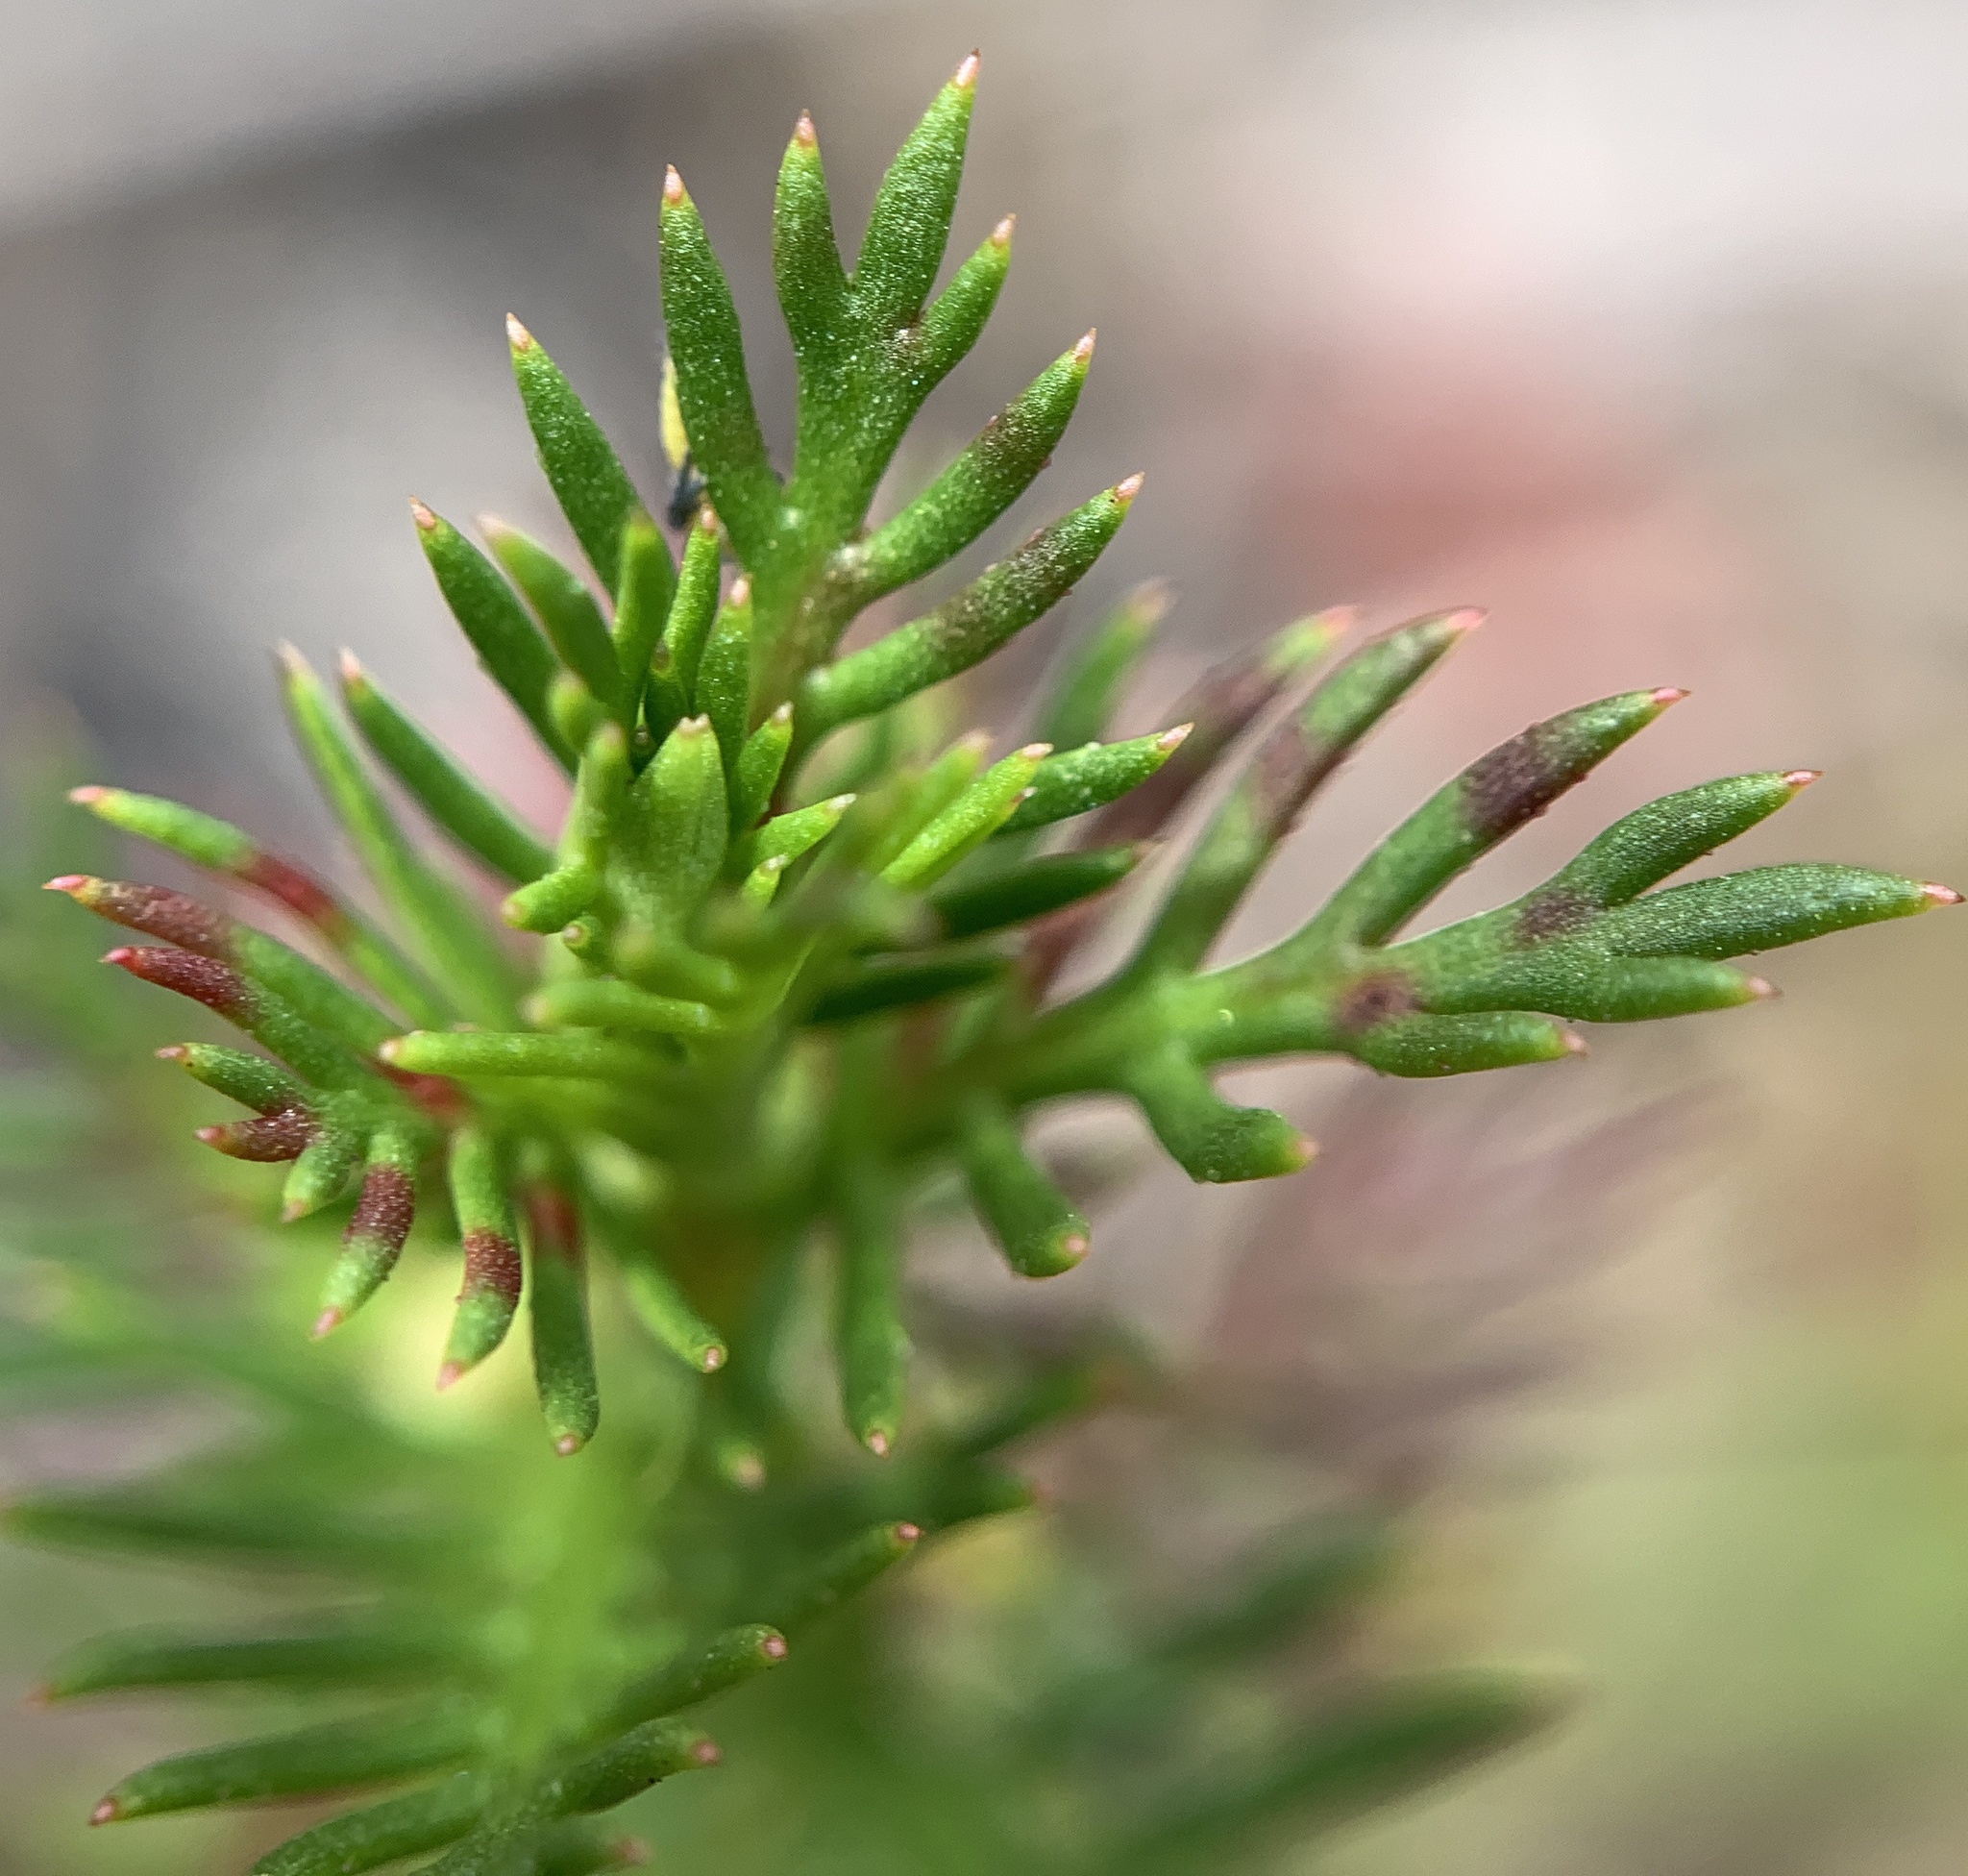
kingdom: Plantae
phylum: Tracheophyta
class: Magnoliopsida
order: Saxifragales
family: Haloragaceae
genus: Proserpinaca
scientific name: Proserpinaca pectinata
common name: Comb-leaved mermaidweed
